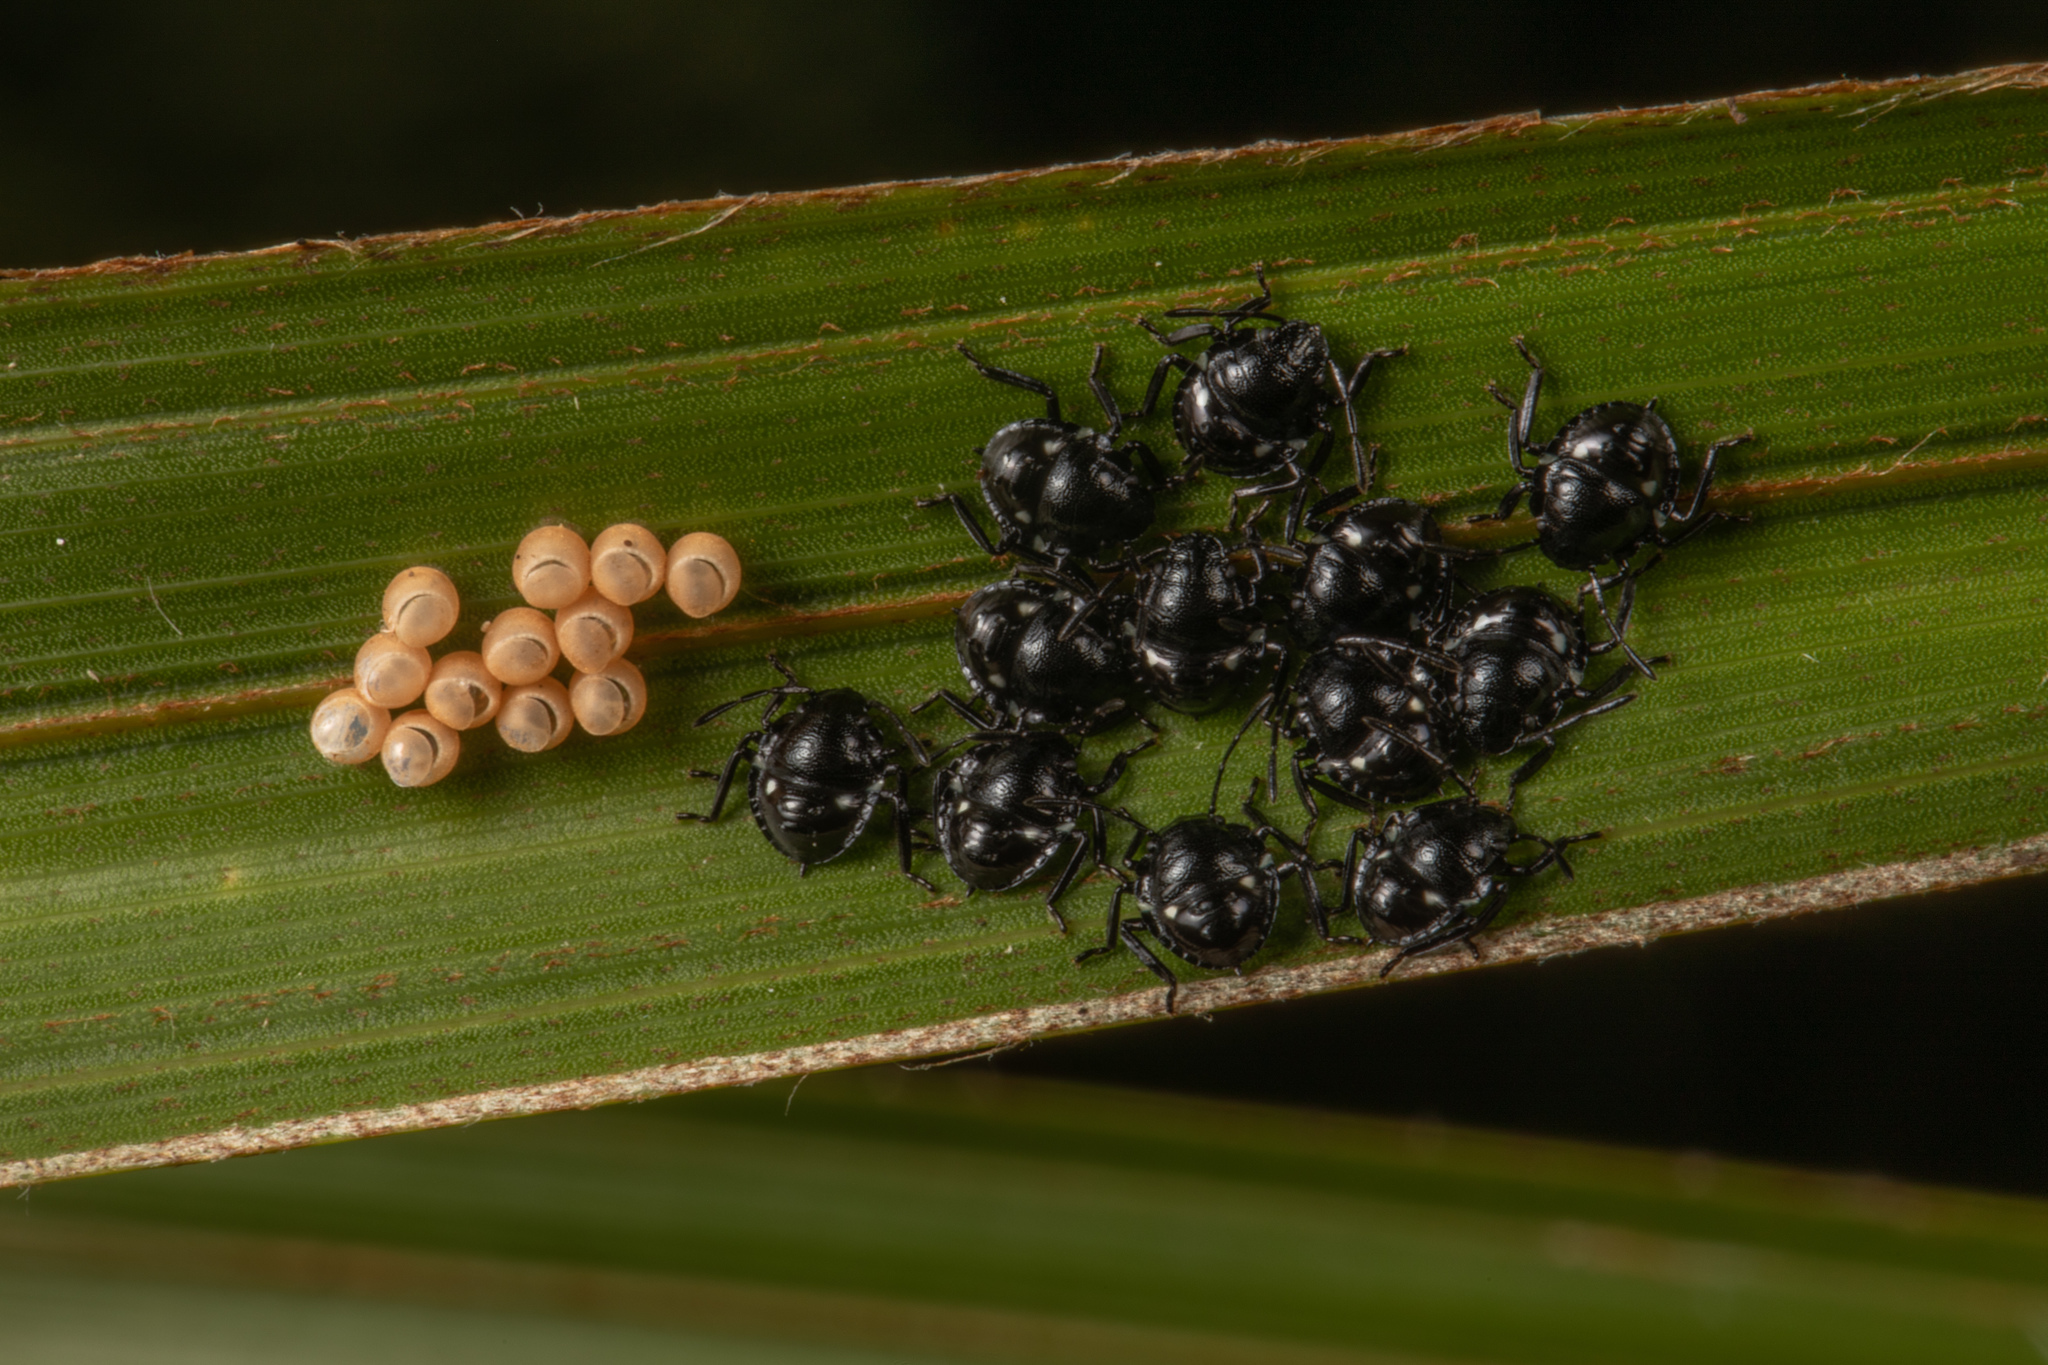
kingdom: Animalia
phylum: Arthropoda
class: Insecta
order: Hemiptera
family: Pentatomidae
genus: Glaucias
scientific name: Glaucias amyota
